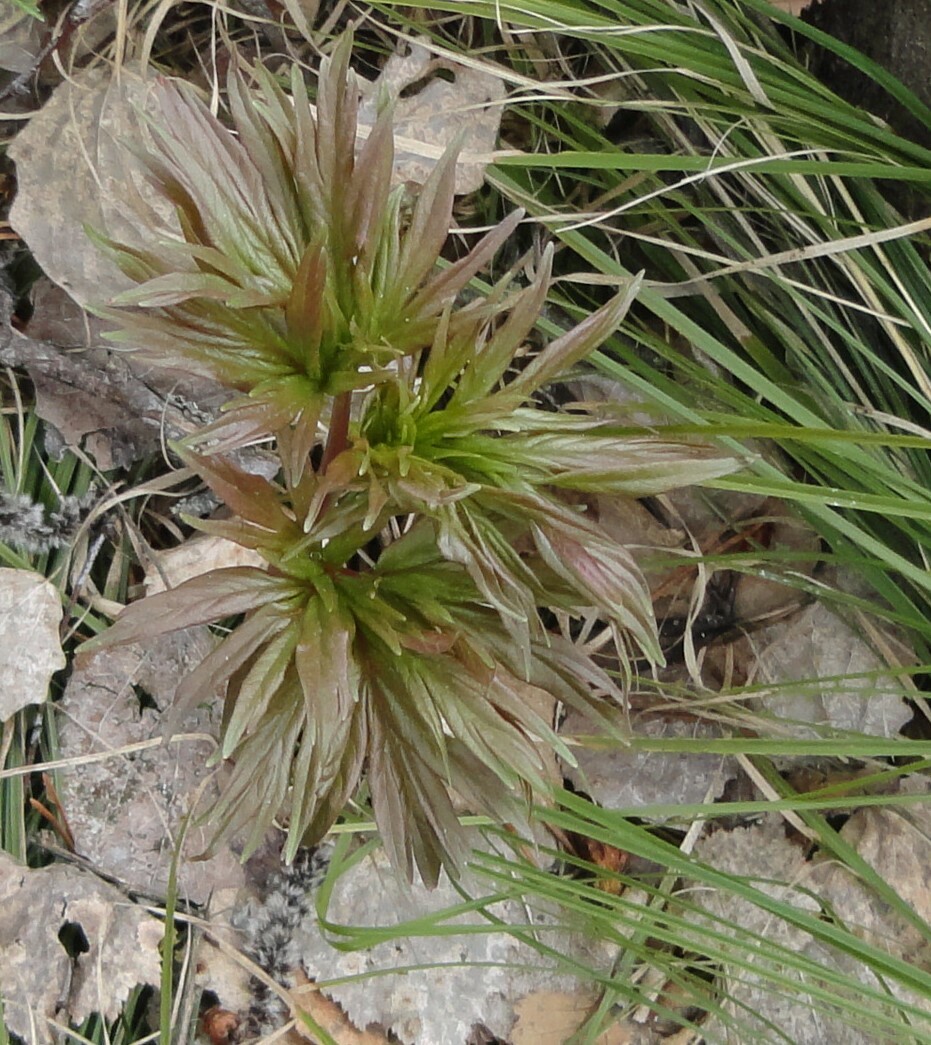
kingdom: Plantae
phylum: Tracheophyta
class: Magnoliopsida
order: Saxifragales
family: Paeoniaceae
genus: Paeonia
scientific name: Paeonia anomala
